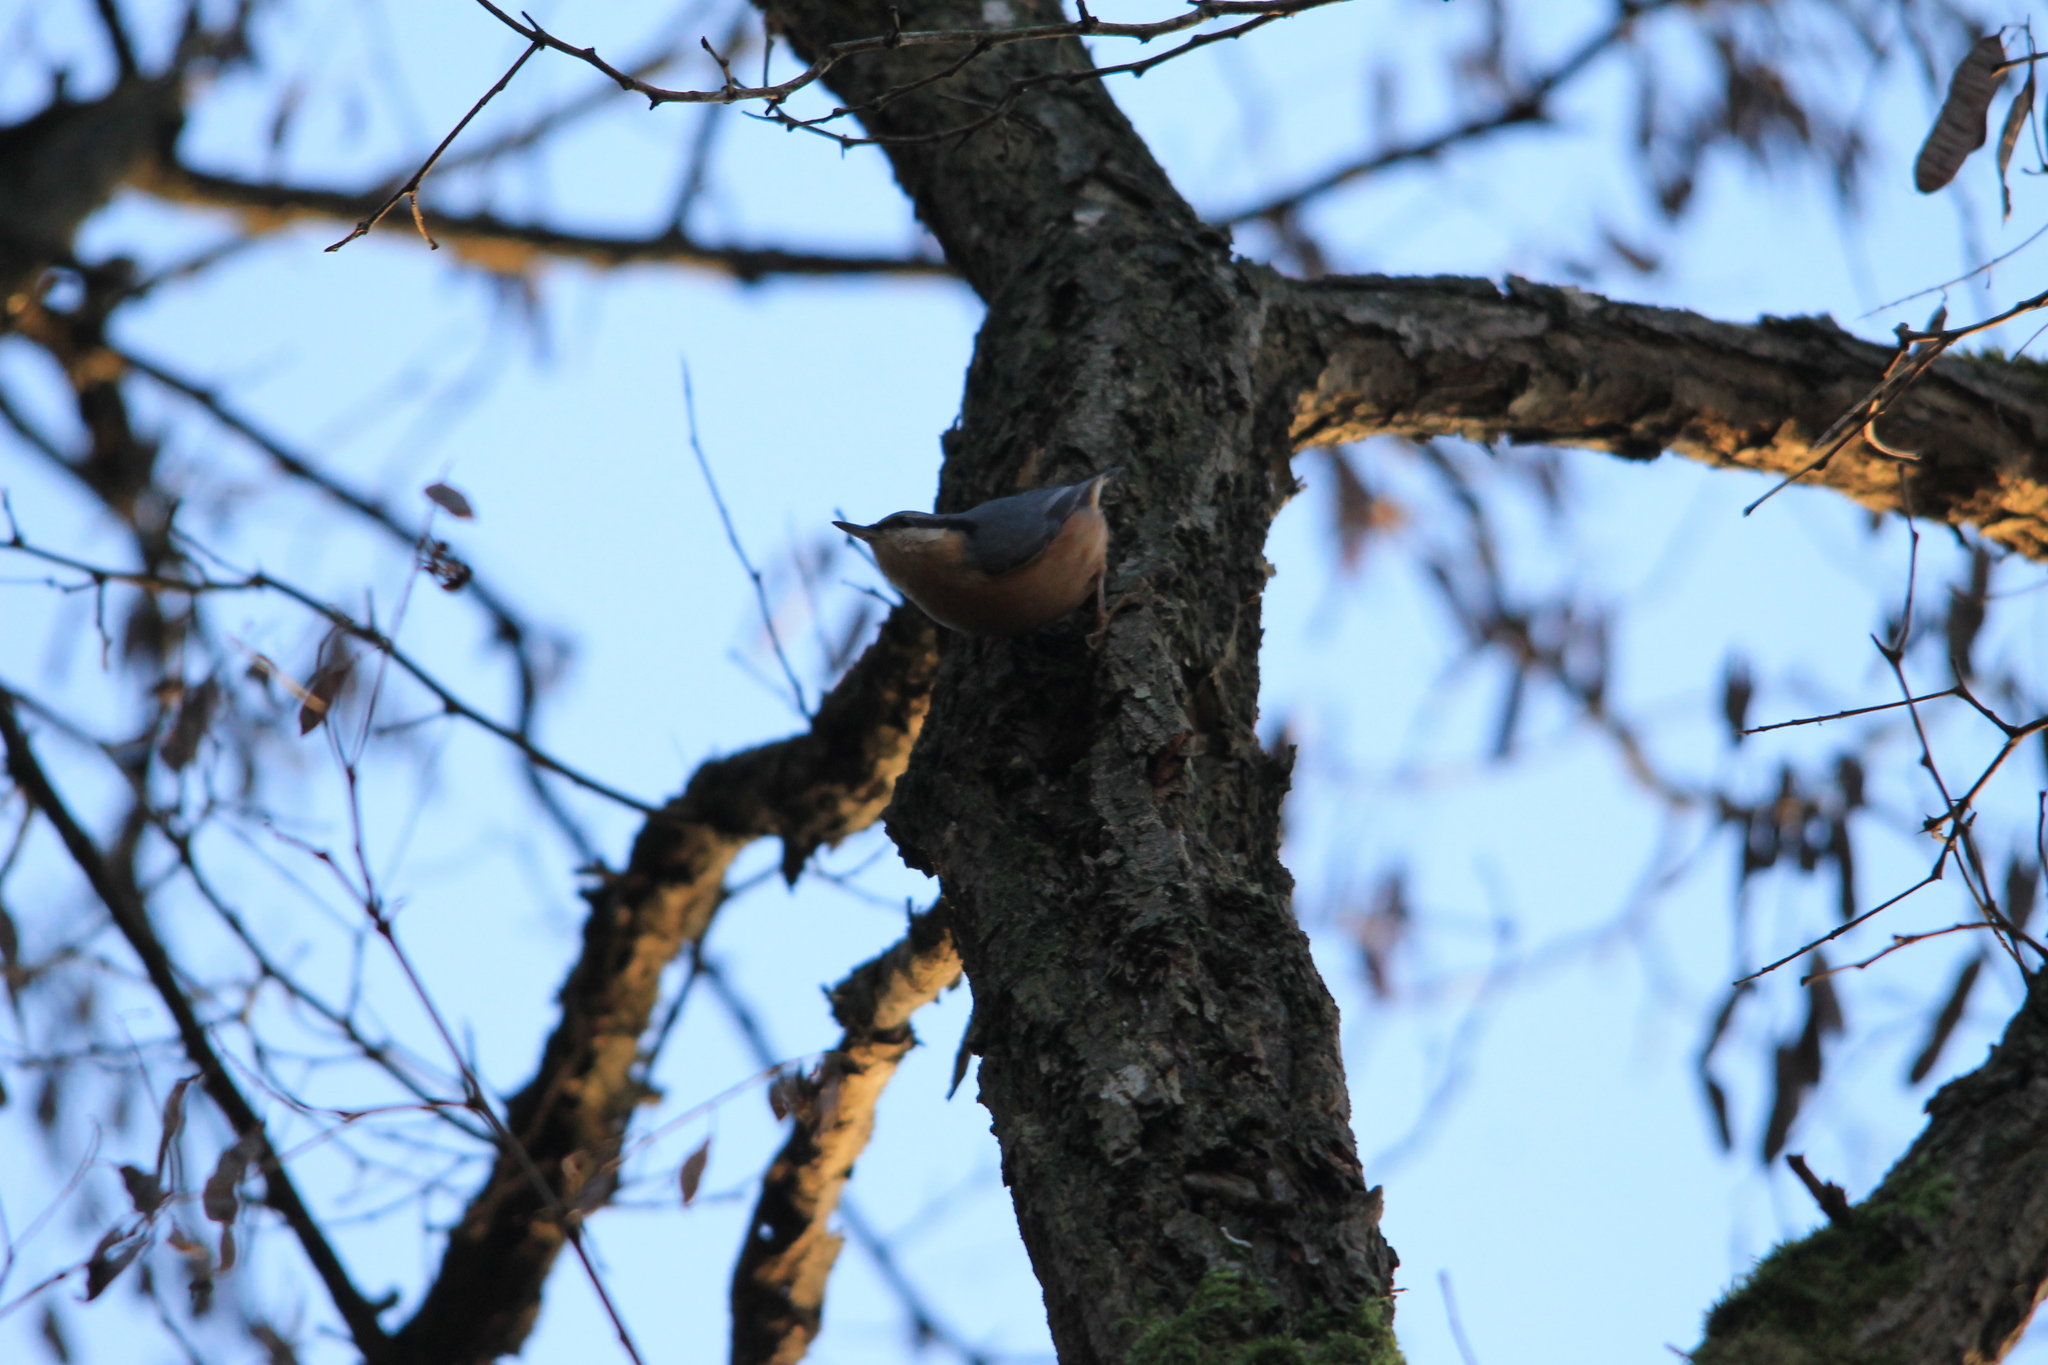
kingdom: Animalia
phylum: Chordata
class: Aves
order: Passeriformes
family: Sittidae
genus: Sitta
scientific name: Sitta europaea
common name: Eurasian nuthatch
